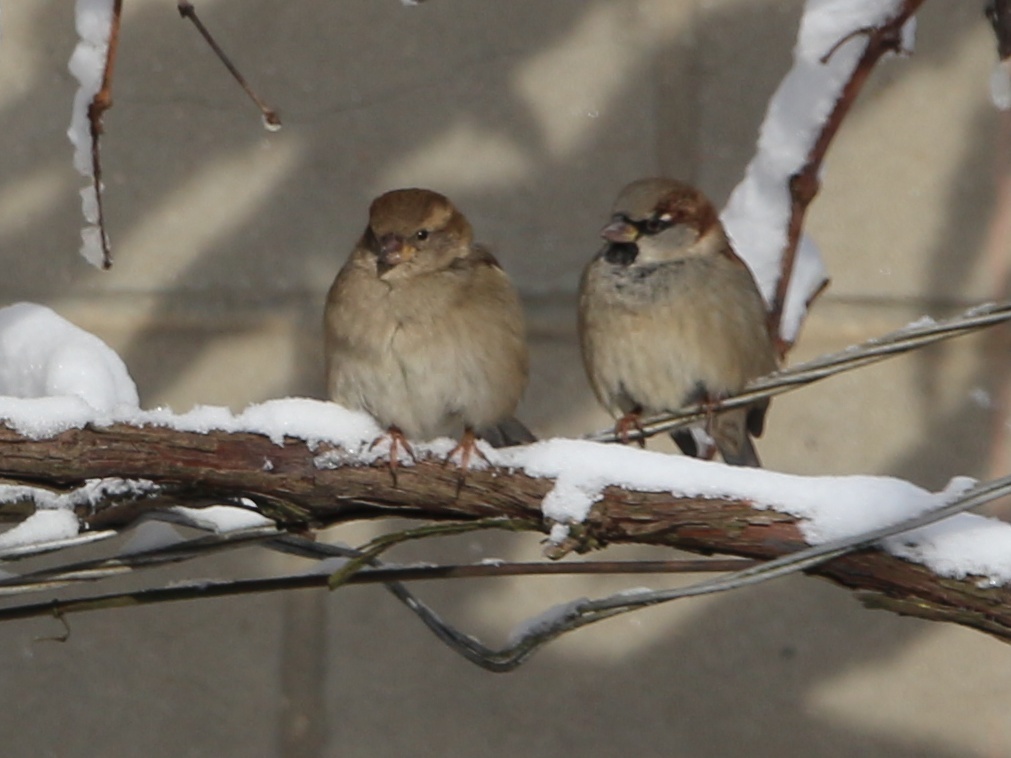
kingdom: Animalia
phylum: Chordata
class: Aves
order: Passeriformes
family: Passeridae
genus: Passer
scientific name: Passer domesticus
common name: House sparrow
